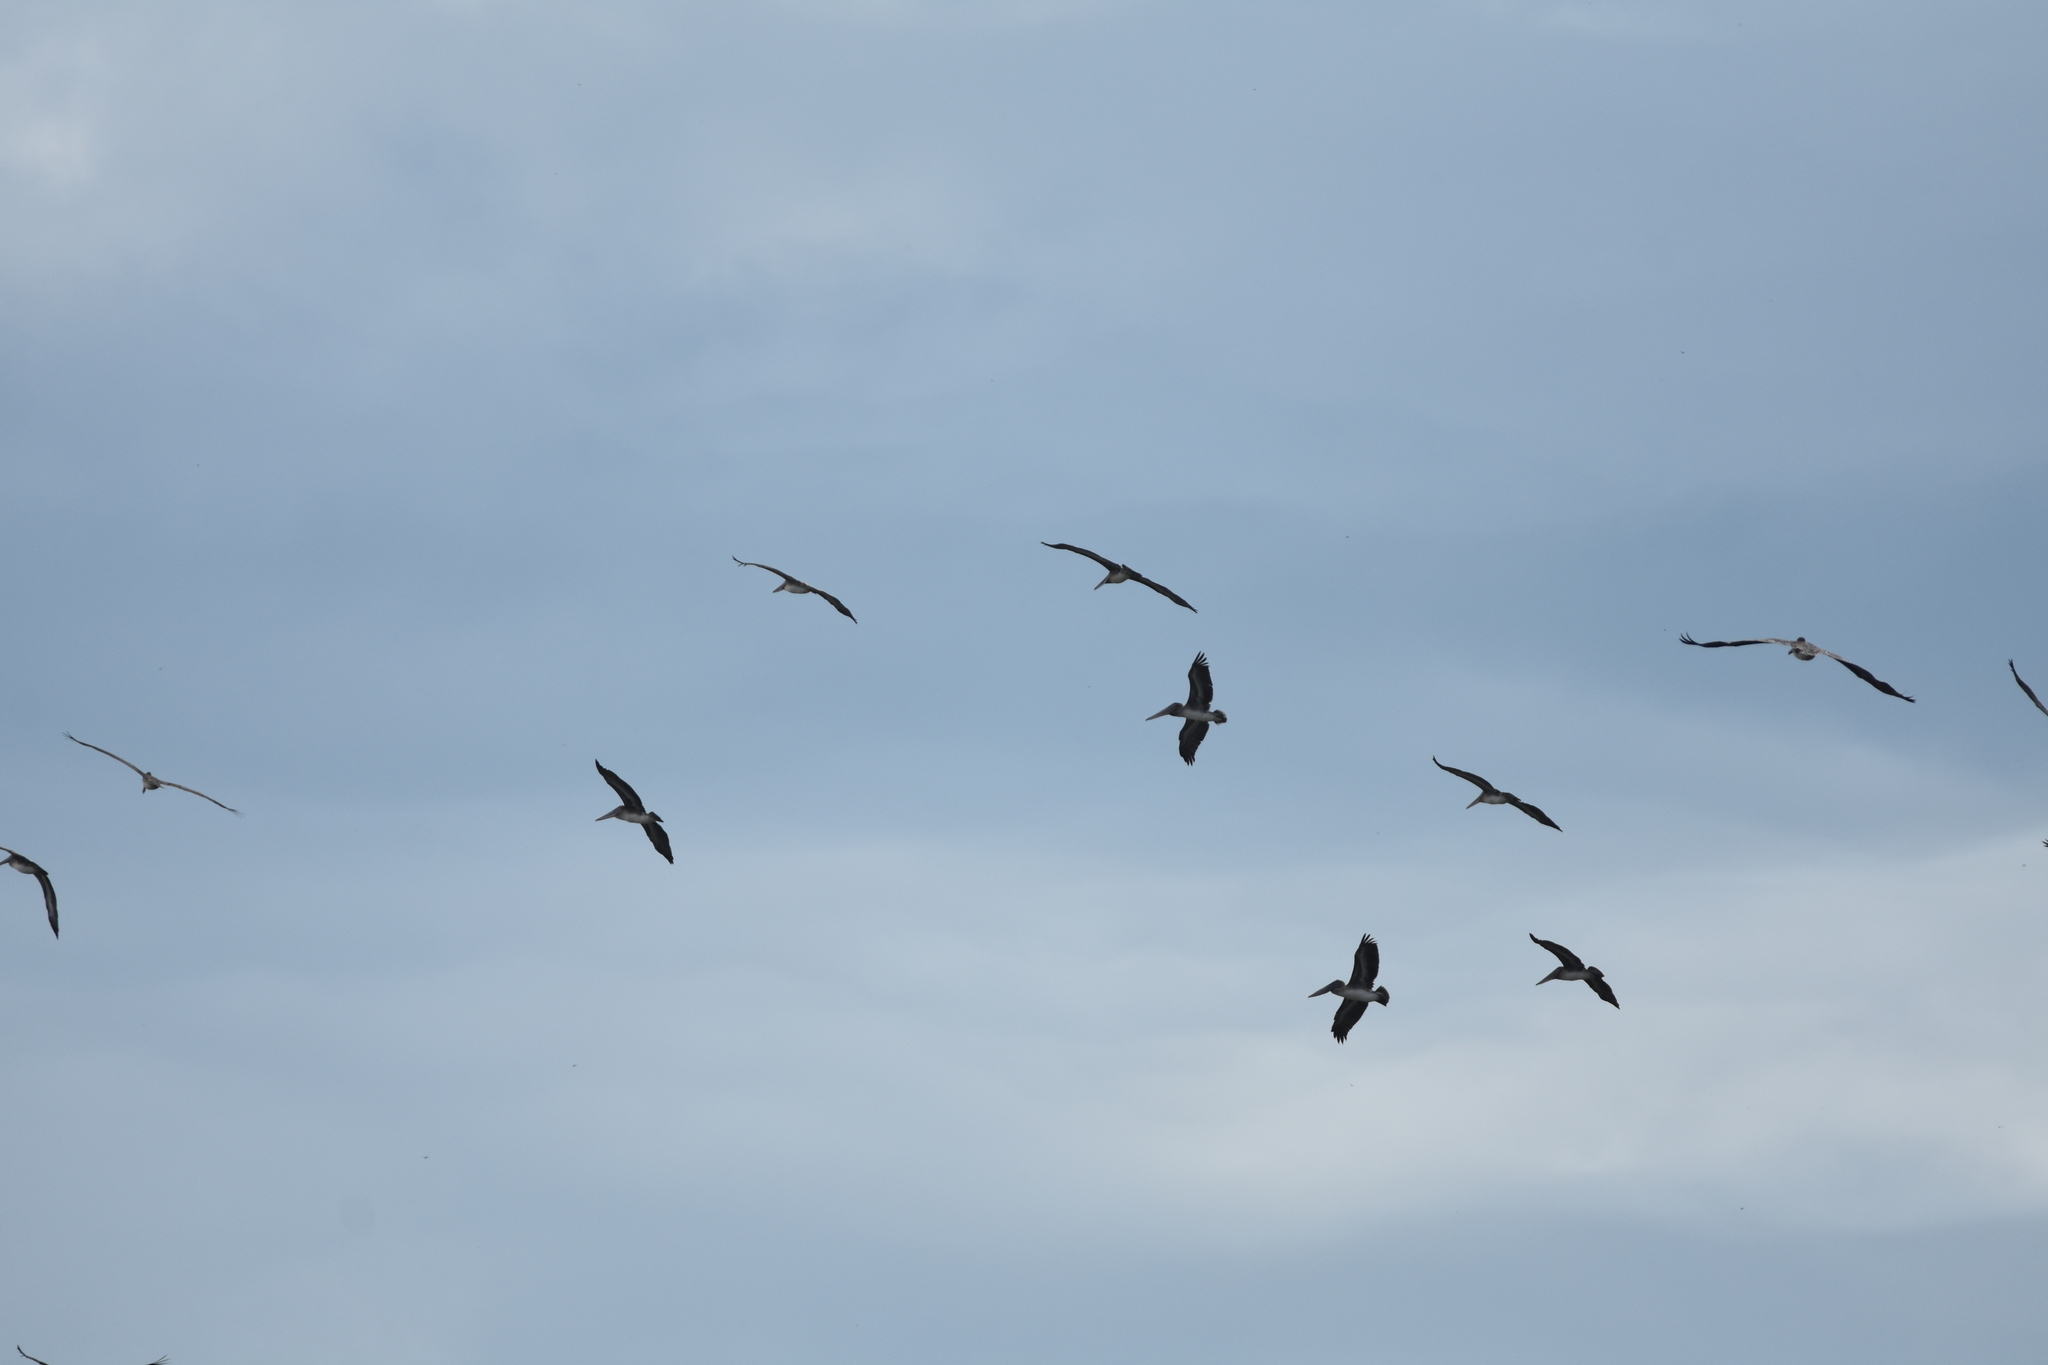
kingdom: Animalia
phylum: Chordata
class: Aves
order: Pelecaniformes
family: Pelecanidae
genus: Pelecanus
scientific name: Pelecanus occidentalis
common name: Brown pelican
